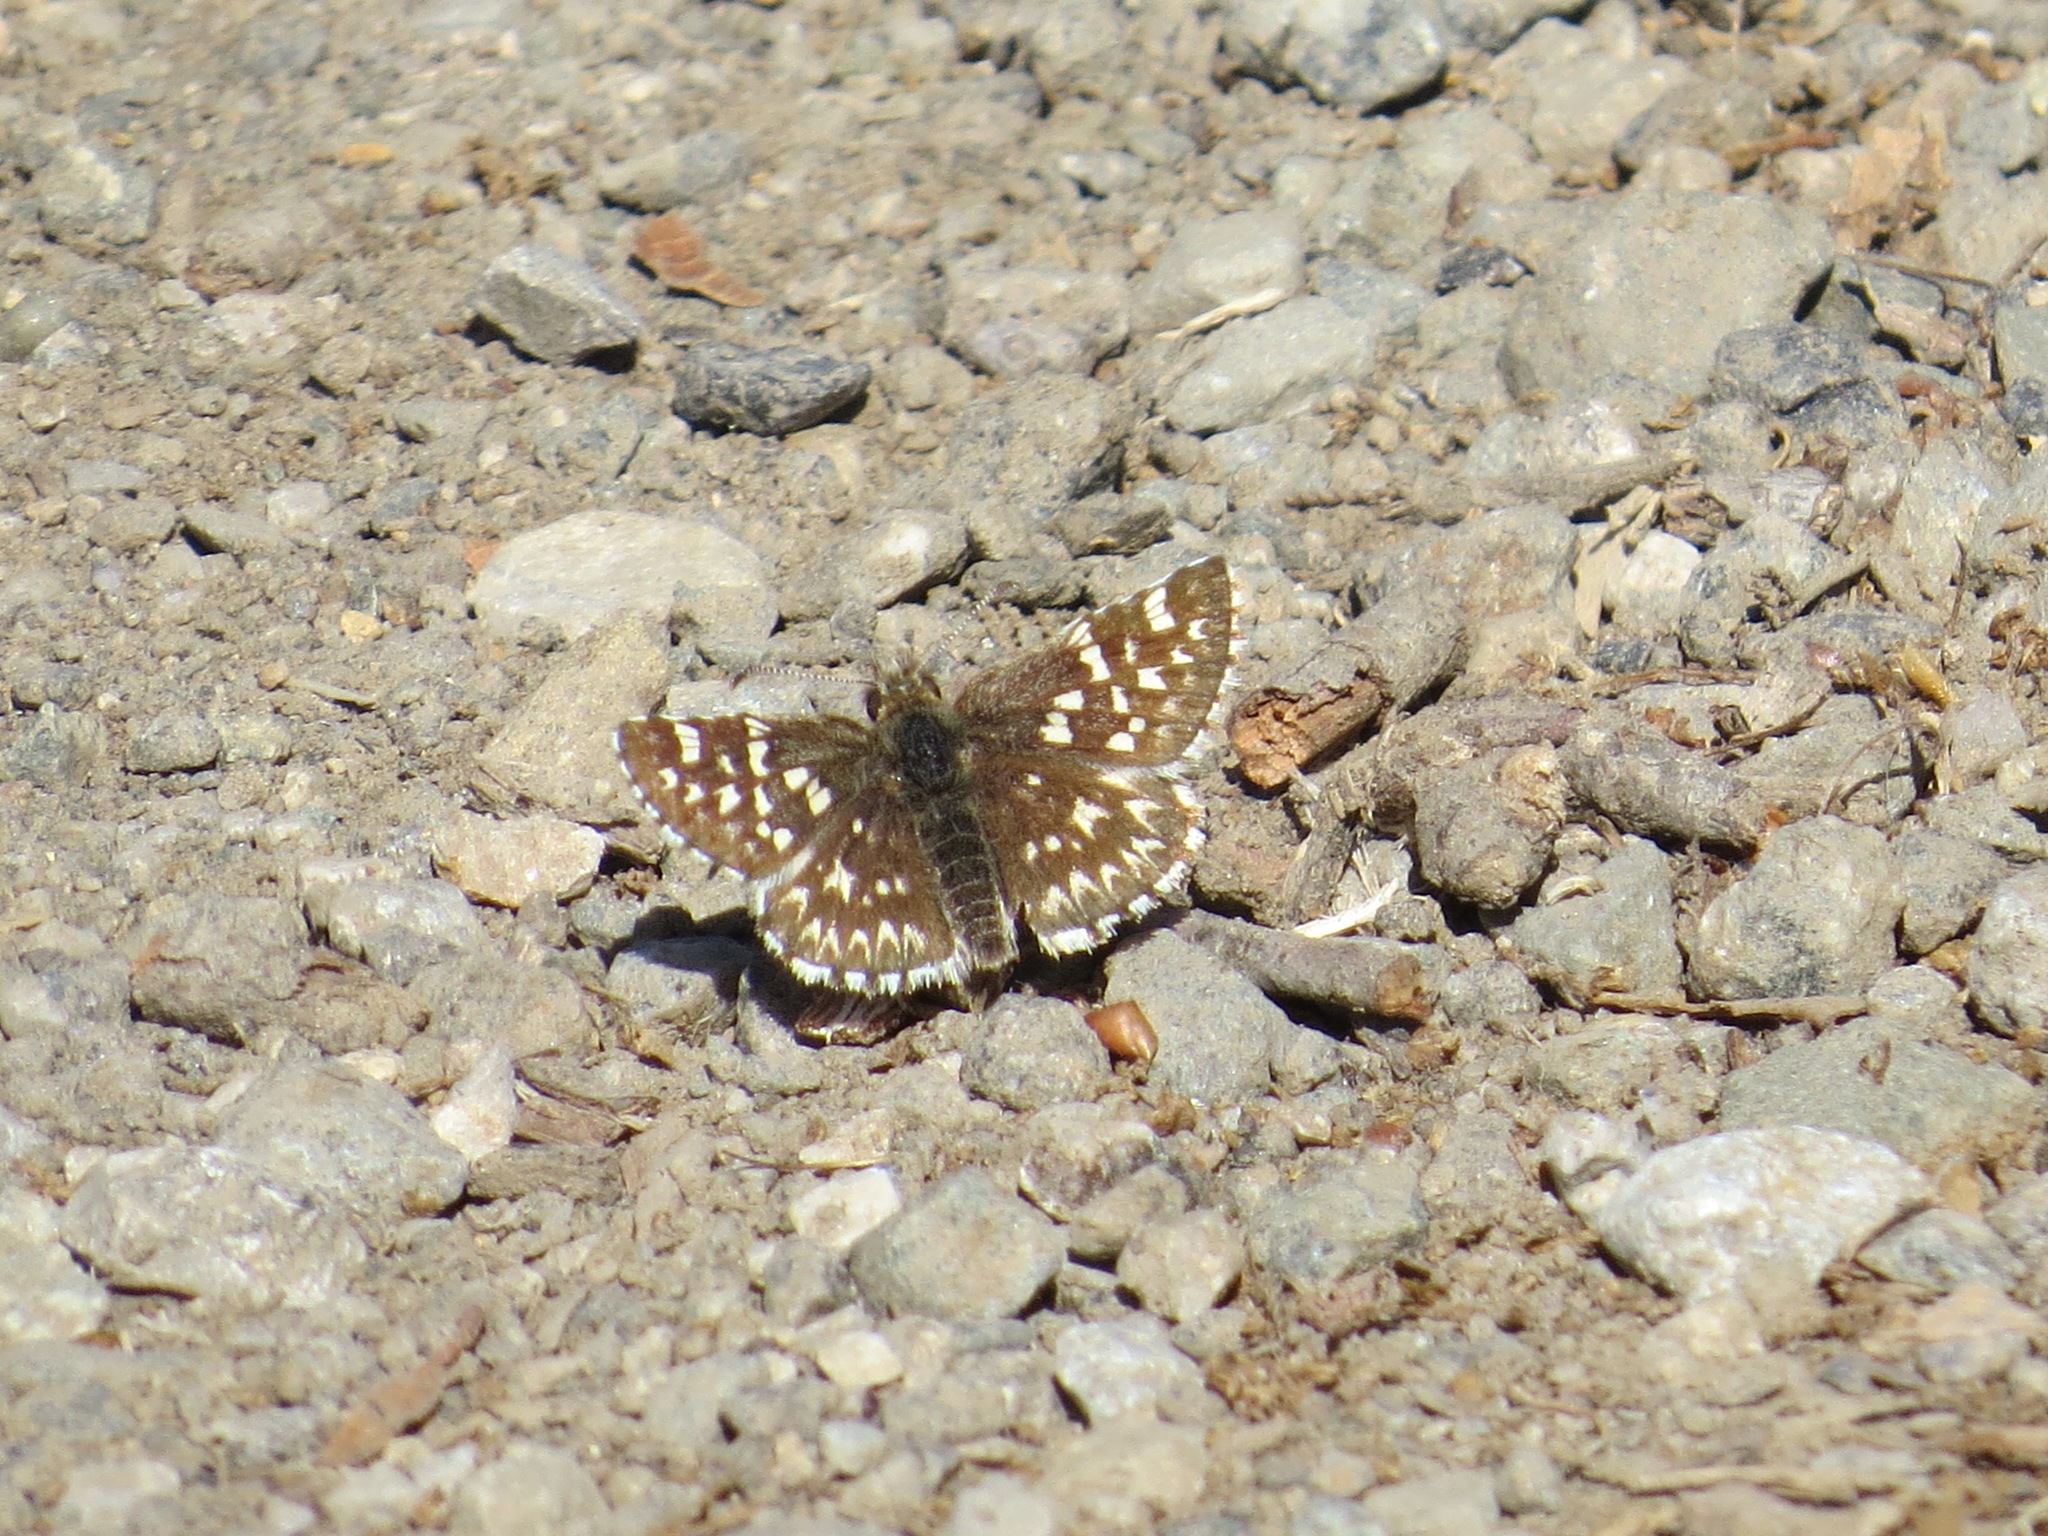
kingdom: Animalia
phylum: Arthropoda
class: Insecta
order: Lepidoptera
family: Hesperiidae
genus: Pyrgus
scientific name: Pyrgus ruralis
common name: Two-banded checkered-skipper
